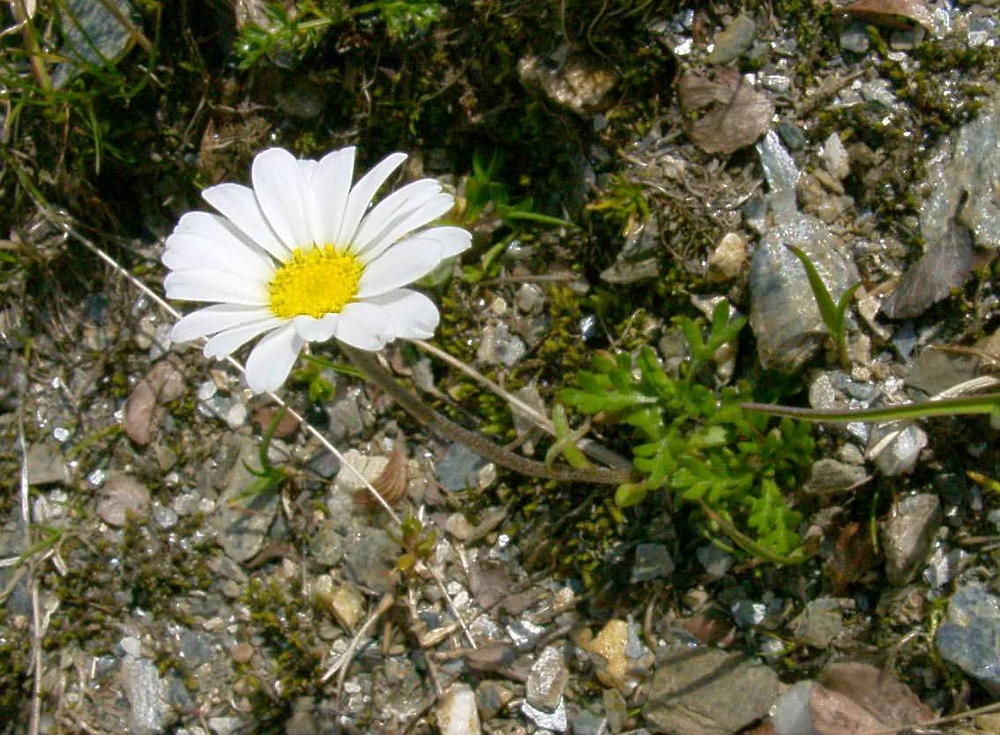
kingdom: Plantae
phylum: Tracheophyta
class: Magnoliopsida
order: Asterales
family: Asteraceae
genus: Leucanthemopsis
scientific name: Leucanthemopsis alpina
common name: Alpine moon daisy
